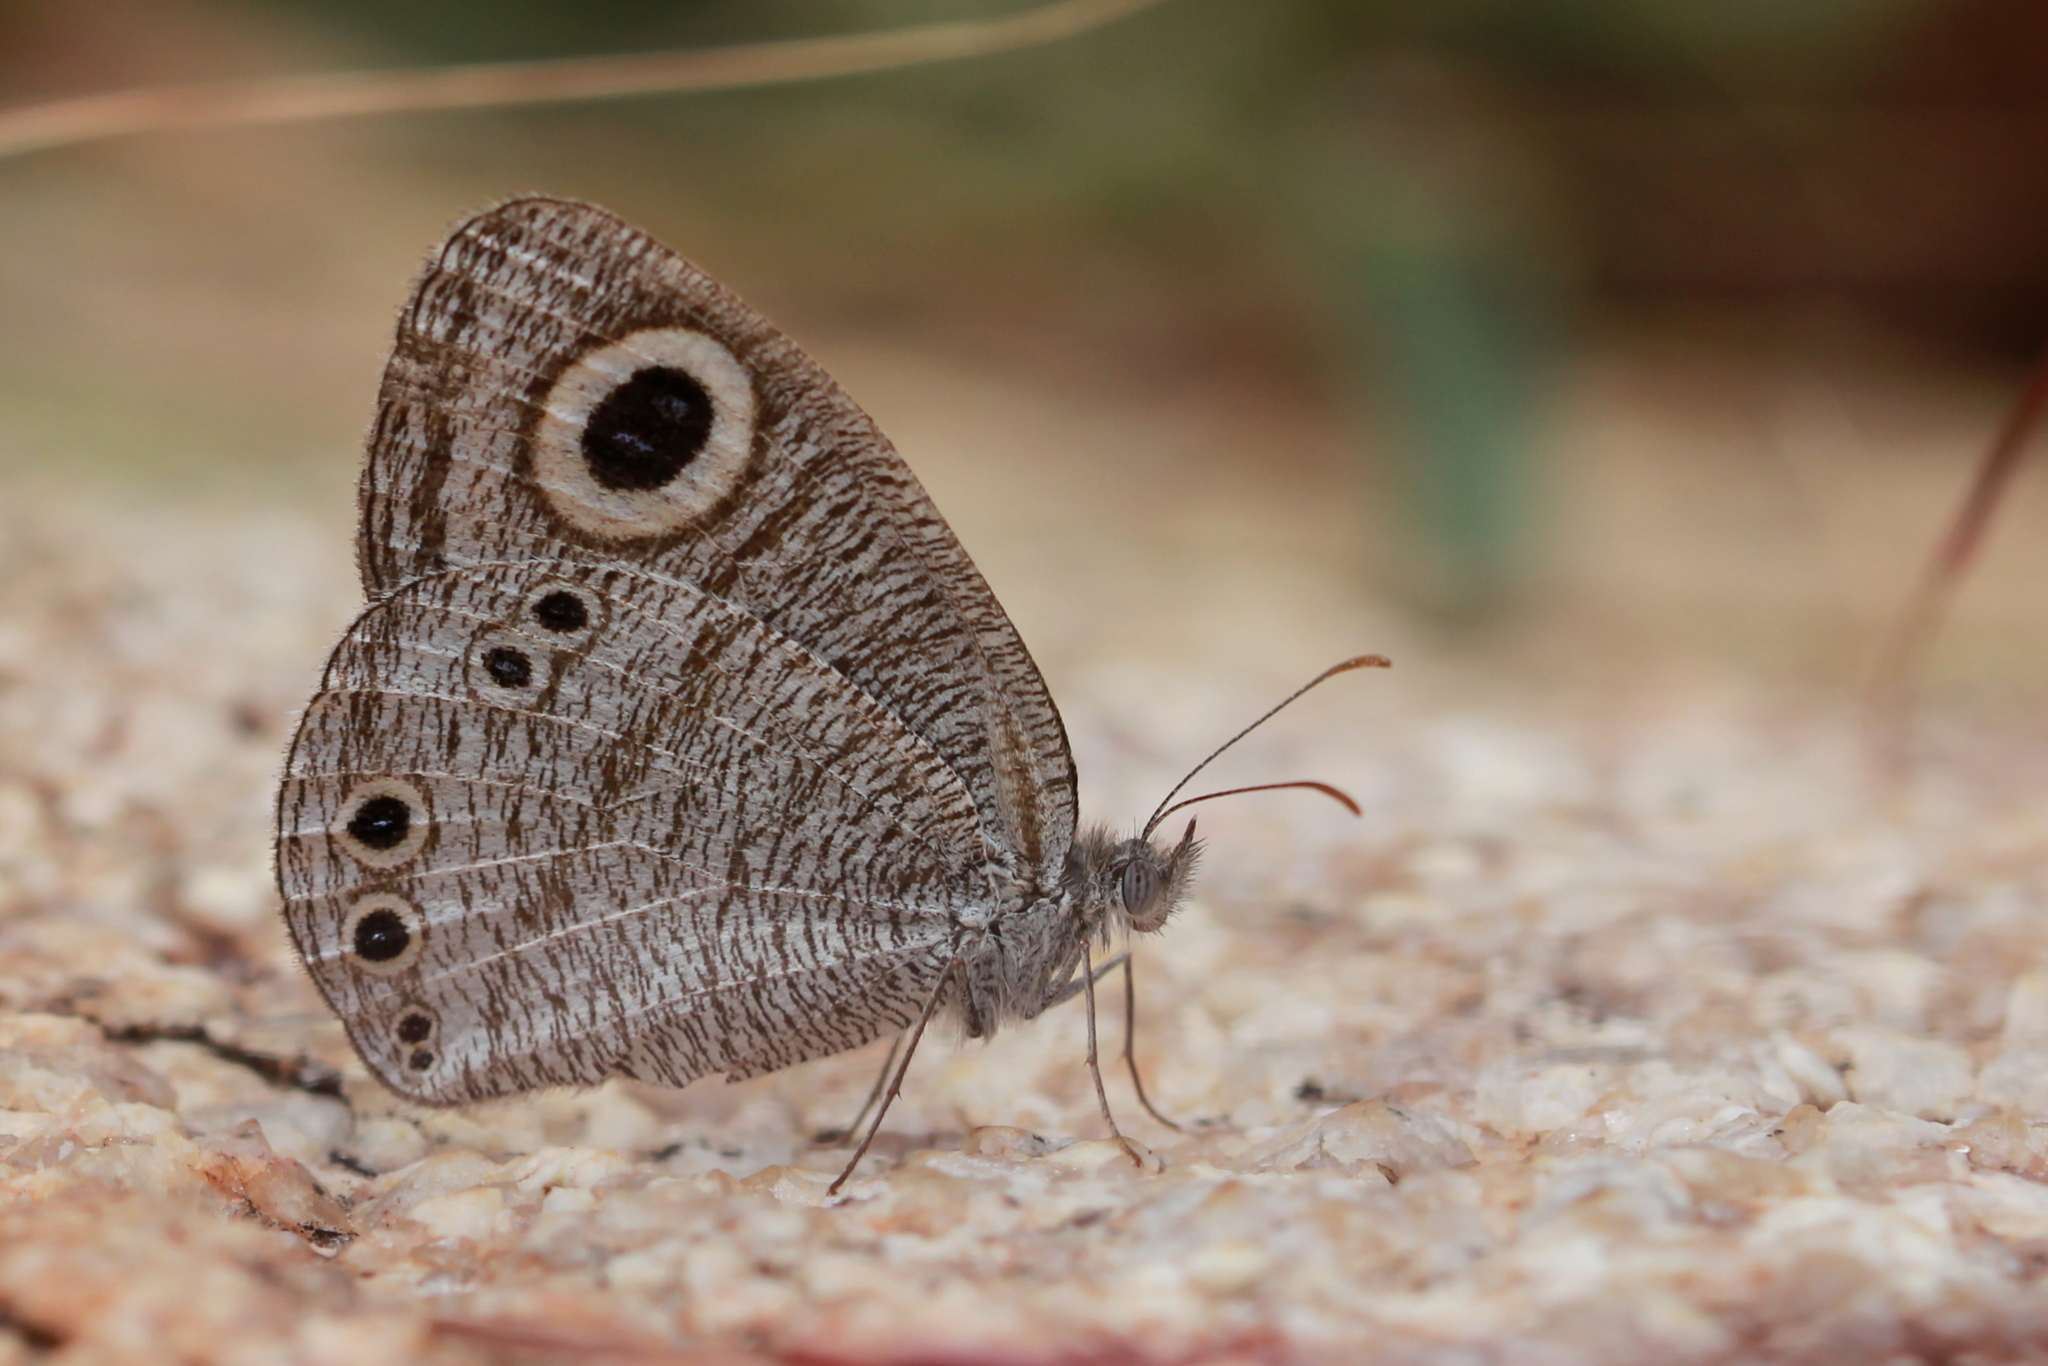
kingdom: Animalia
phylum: Arthropoda
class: Insecta
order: Lepidoptera
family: Nymphalidae
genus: Ypthima
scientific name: Ypthima avanta
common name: Jewel five-ring
